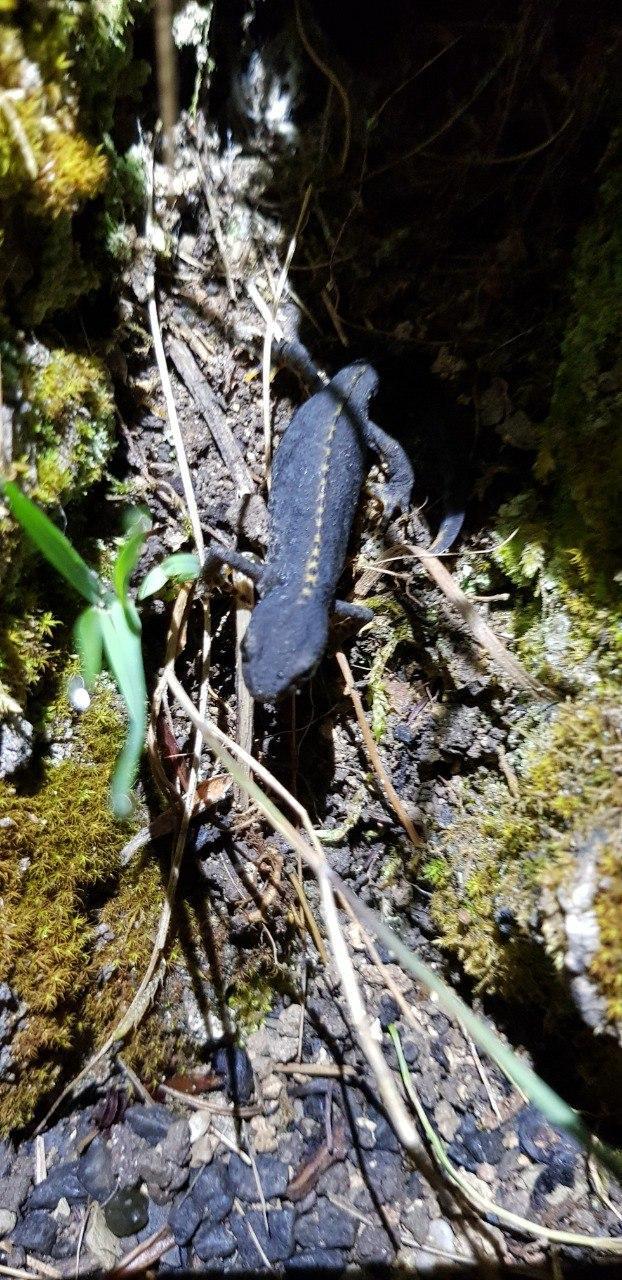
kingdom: Animalia
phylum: Chordata
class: Amphibia
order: Caudata
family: Salamandridae
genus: Ichthyosaura
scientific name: Ichthyosaura alpestris
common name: Alpine newt
